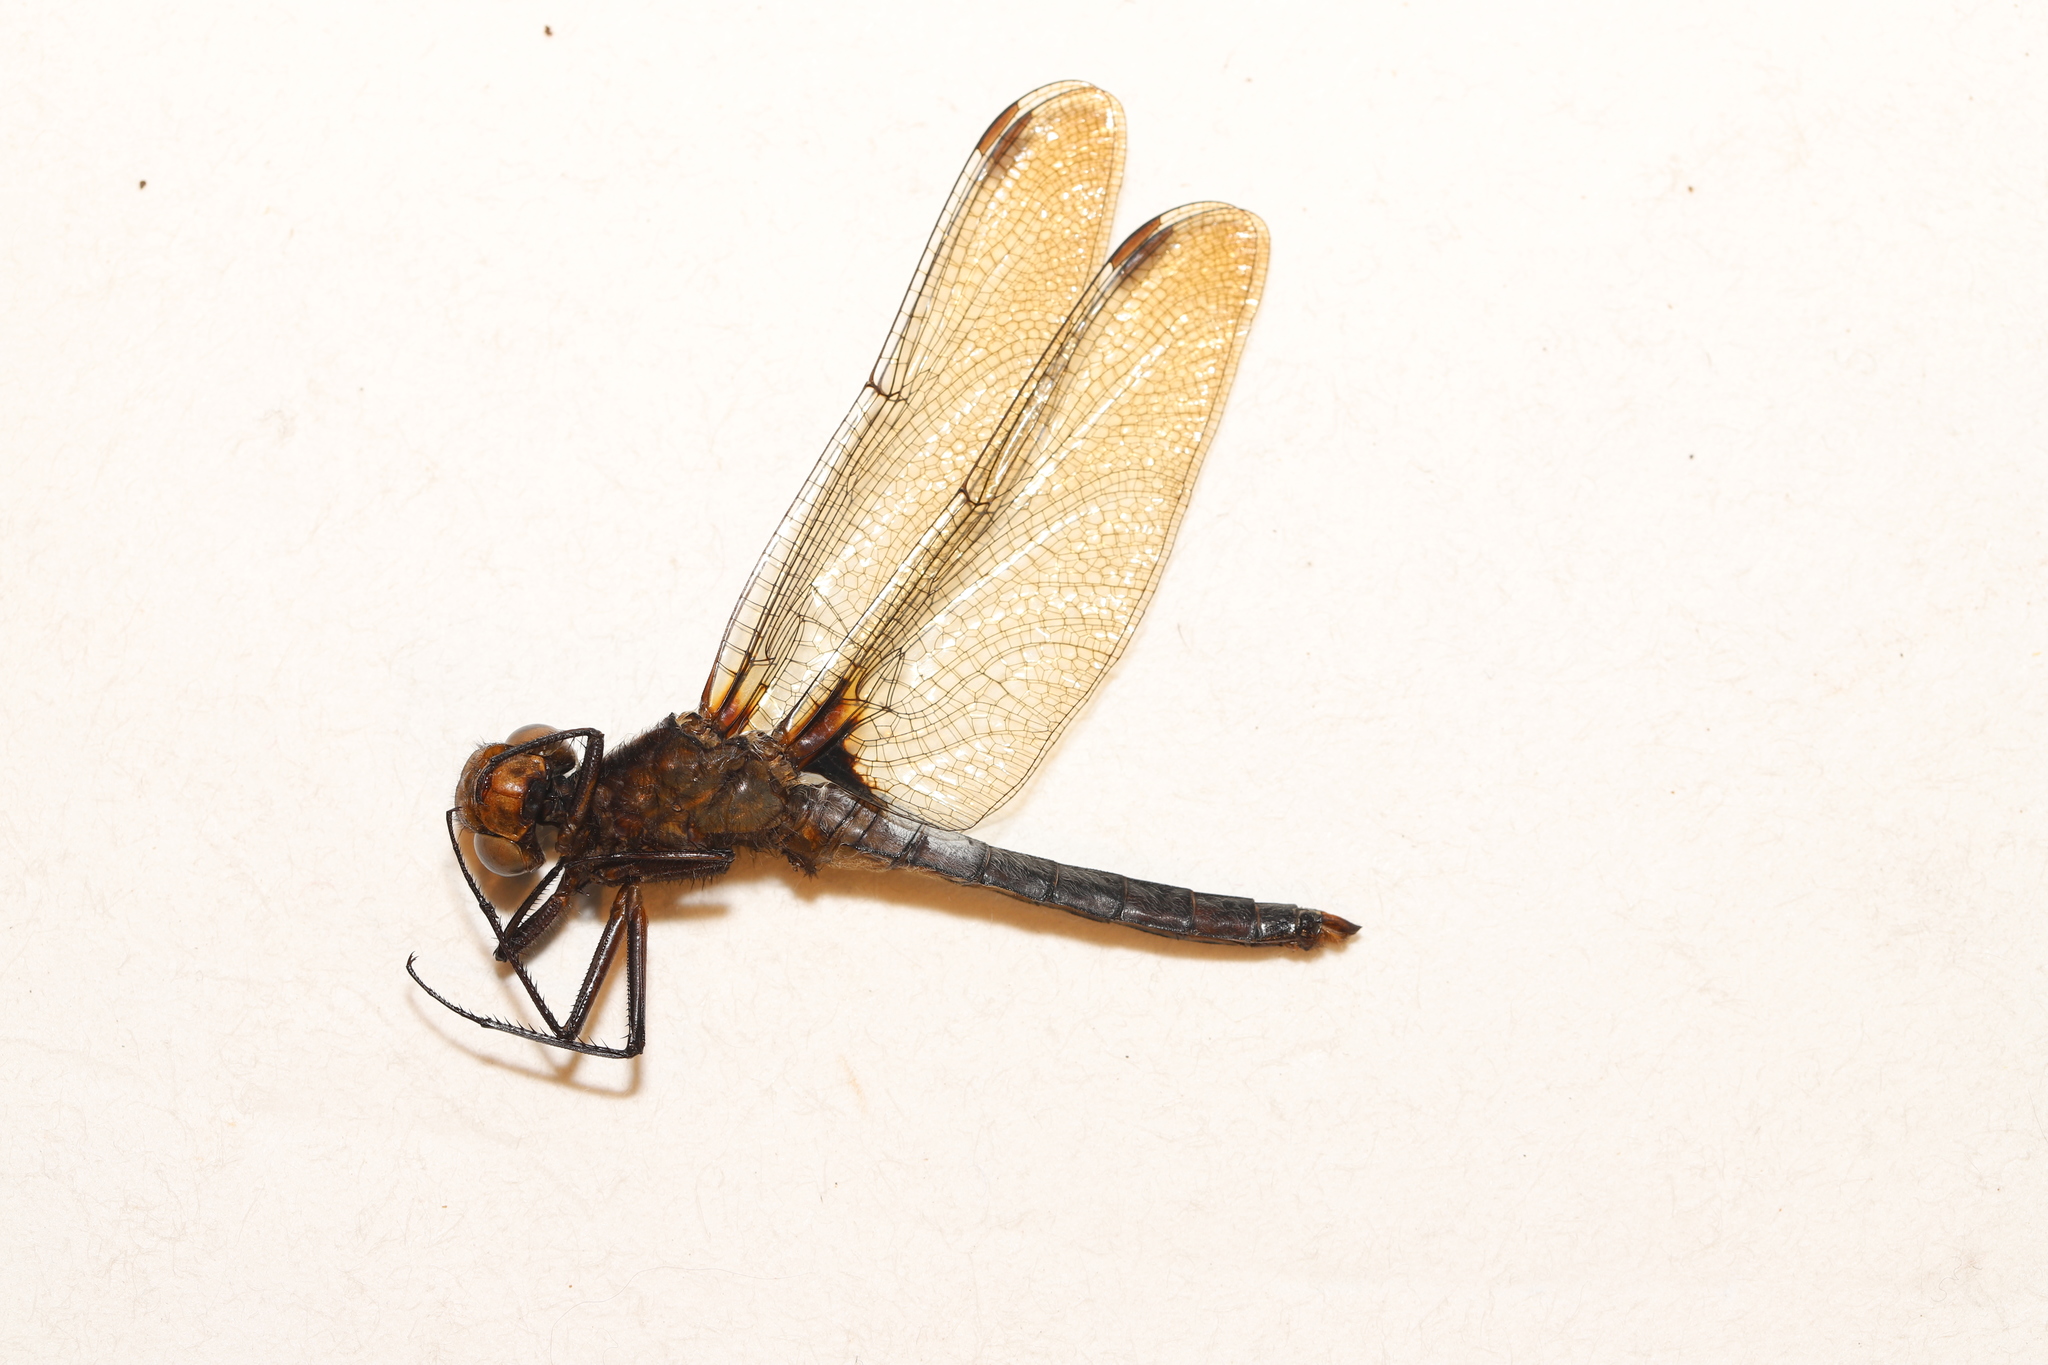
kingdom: Animalia
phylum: Arthropoda
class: Insecta
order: Odonata
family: Libellulidae
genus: Ladona
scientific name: Ladona julia
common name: Chalk-fronted corporal
